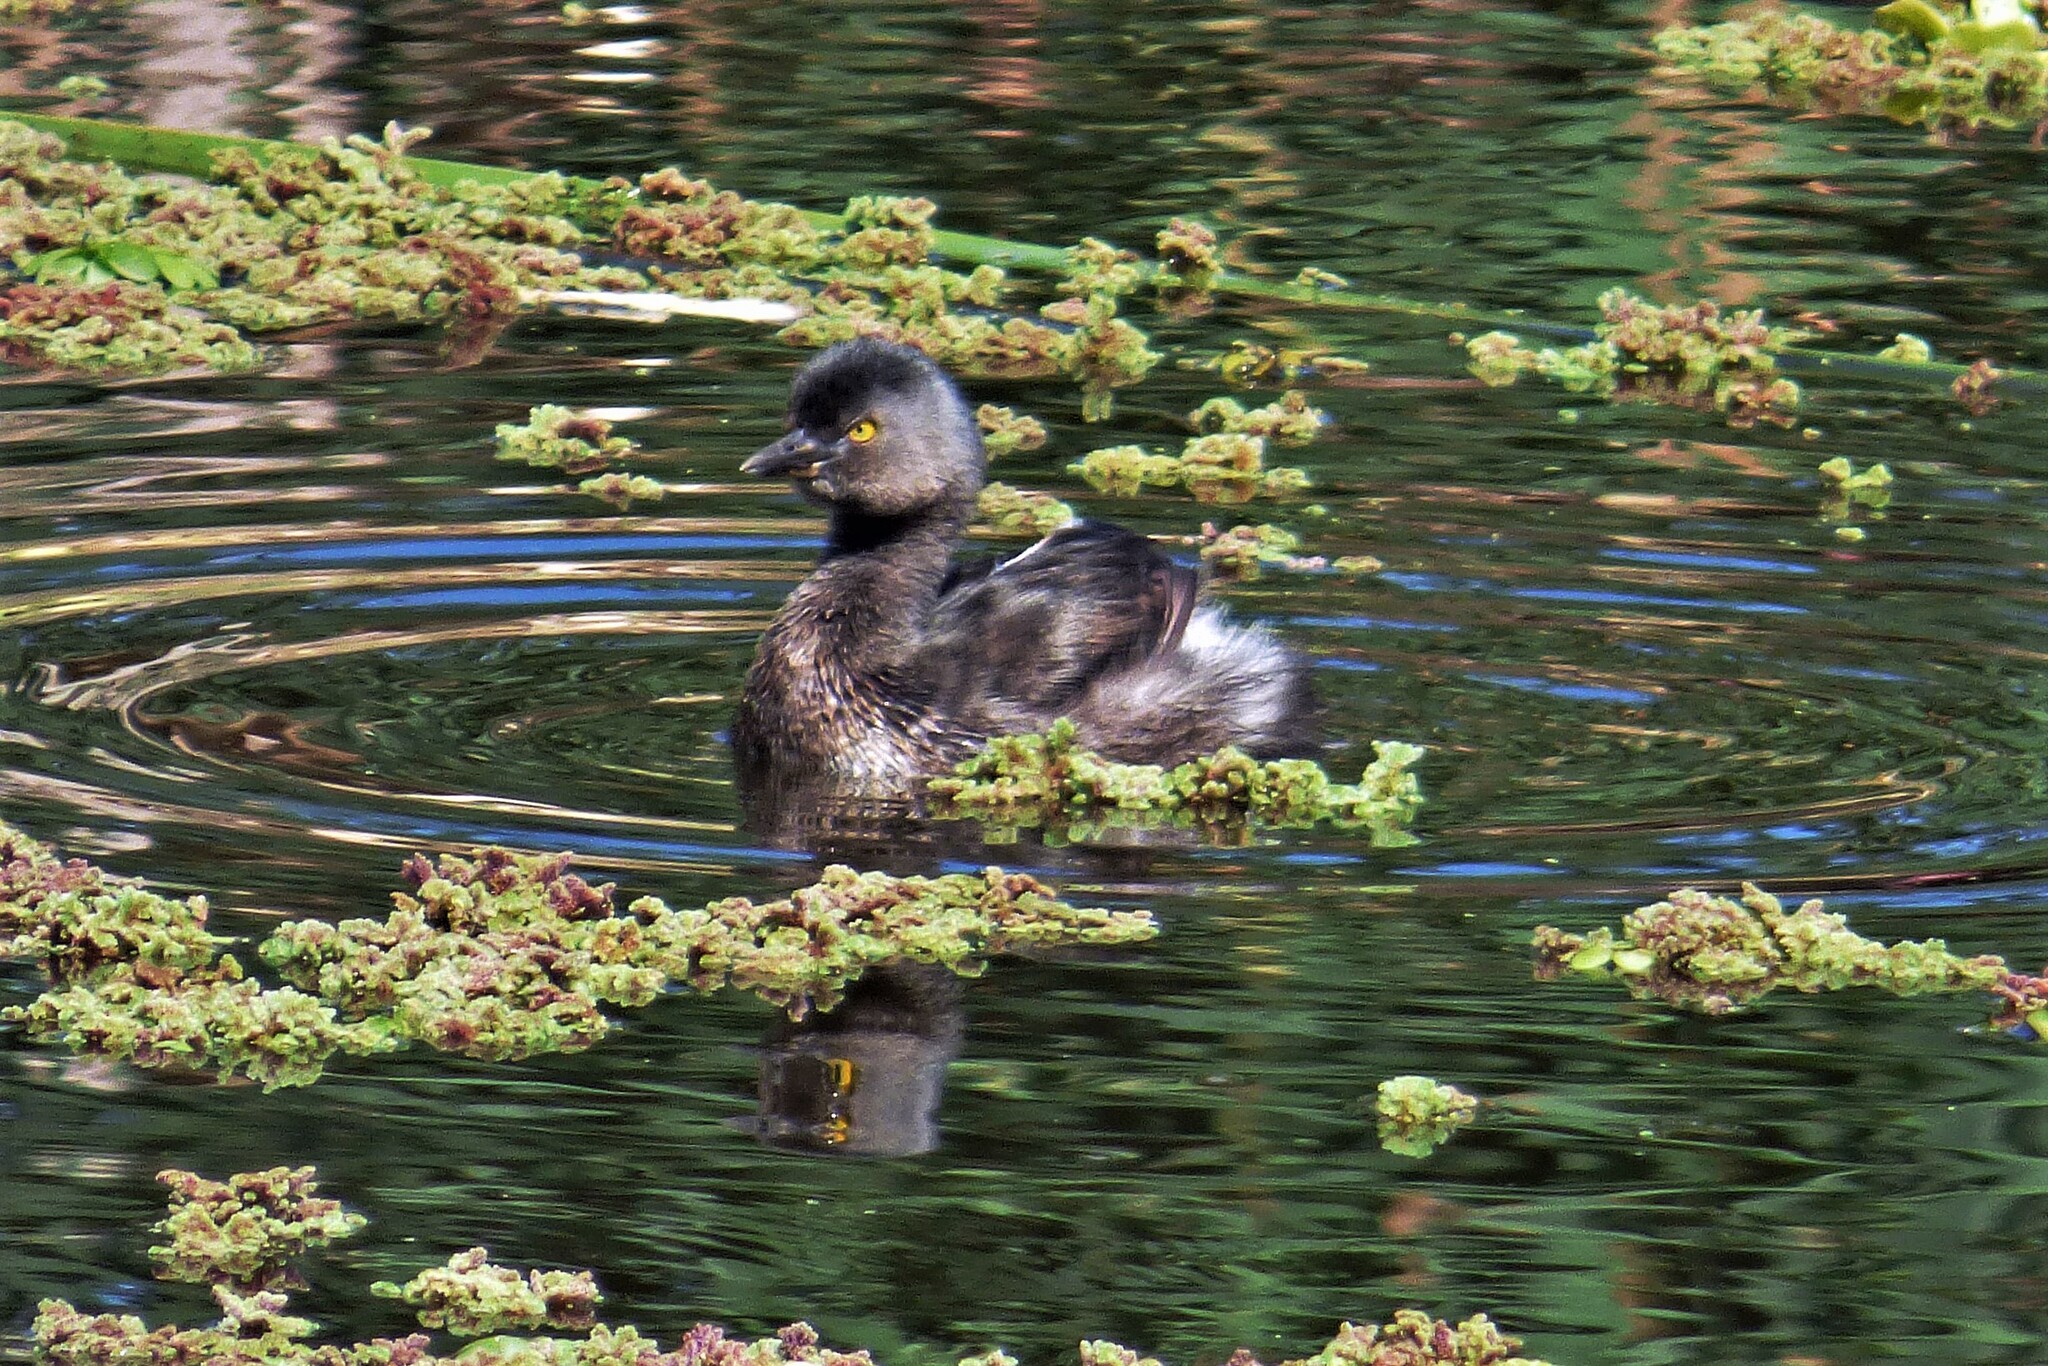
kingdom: Animalia
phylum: Chordata
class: Aves
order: Podicipediformes
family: Podicipedidae
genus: Tachybaptus
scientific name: Tachybaptus dominicus
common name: Least grebe
